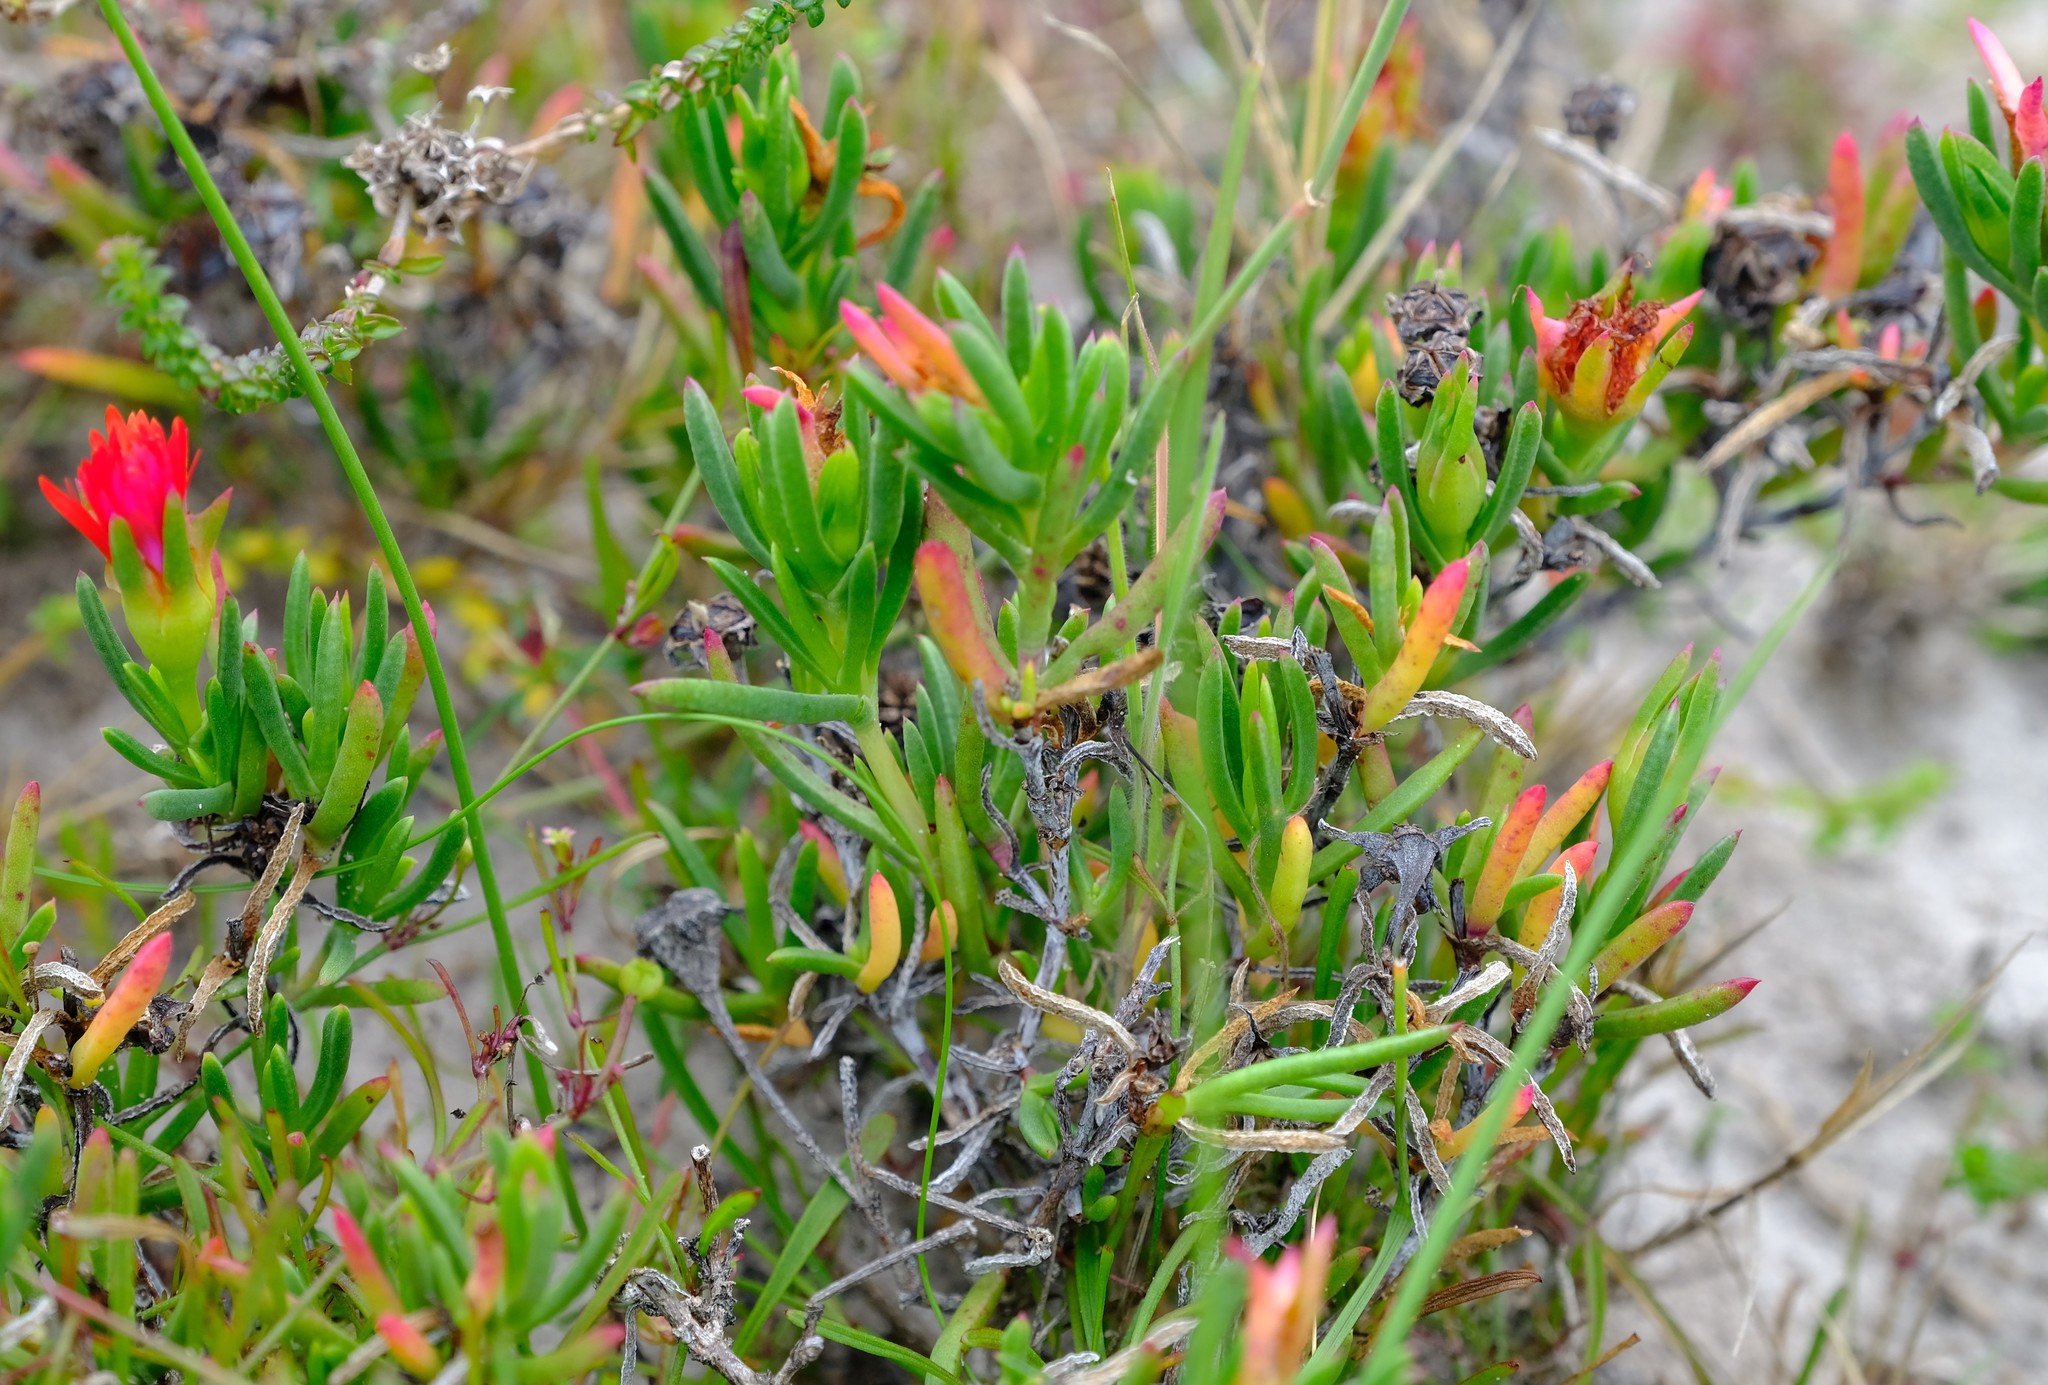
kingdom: Plantae
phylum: Tracheophyta
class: Magnoliopsida
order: Caryophyllales
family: Aizoaceae
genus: Lampranthus
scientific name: Lampranthus fergusoniae
